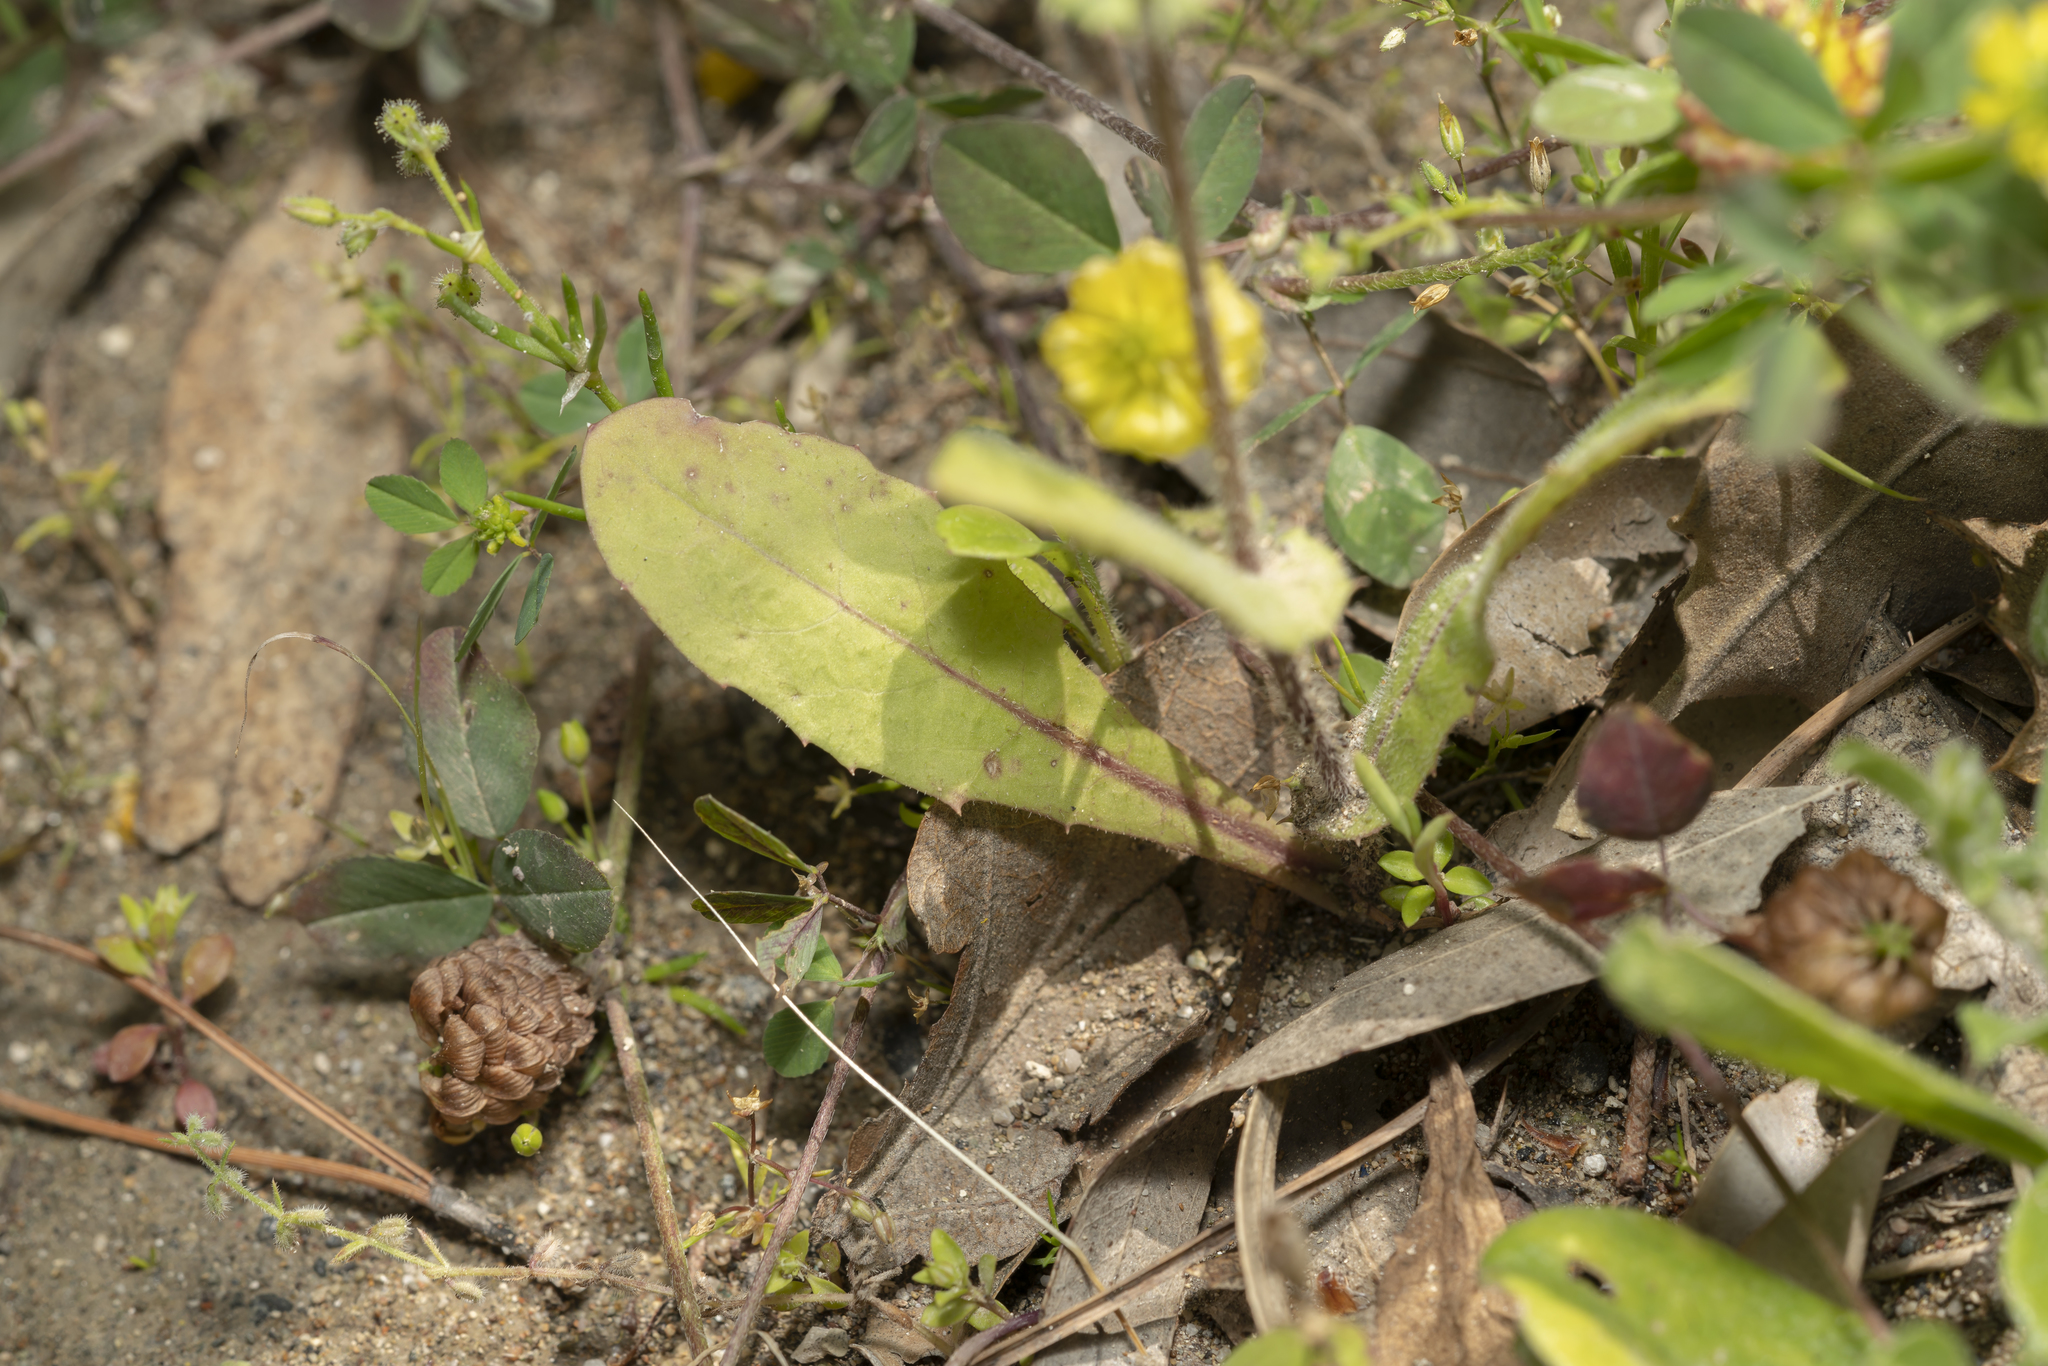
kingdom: Plantae
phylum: Tracheophyta
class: Magnoliopsida
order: Asterales
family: Asteraceae
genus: Crepis
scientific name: Crepis micrantha
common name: Hawk's-beard
